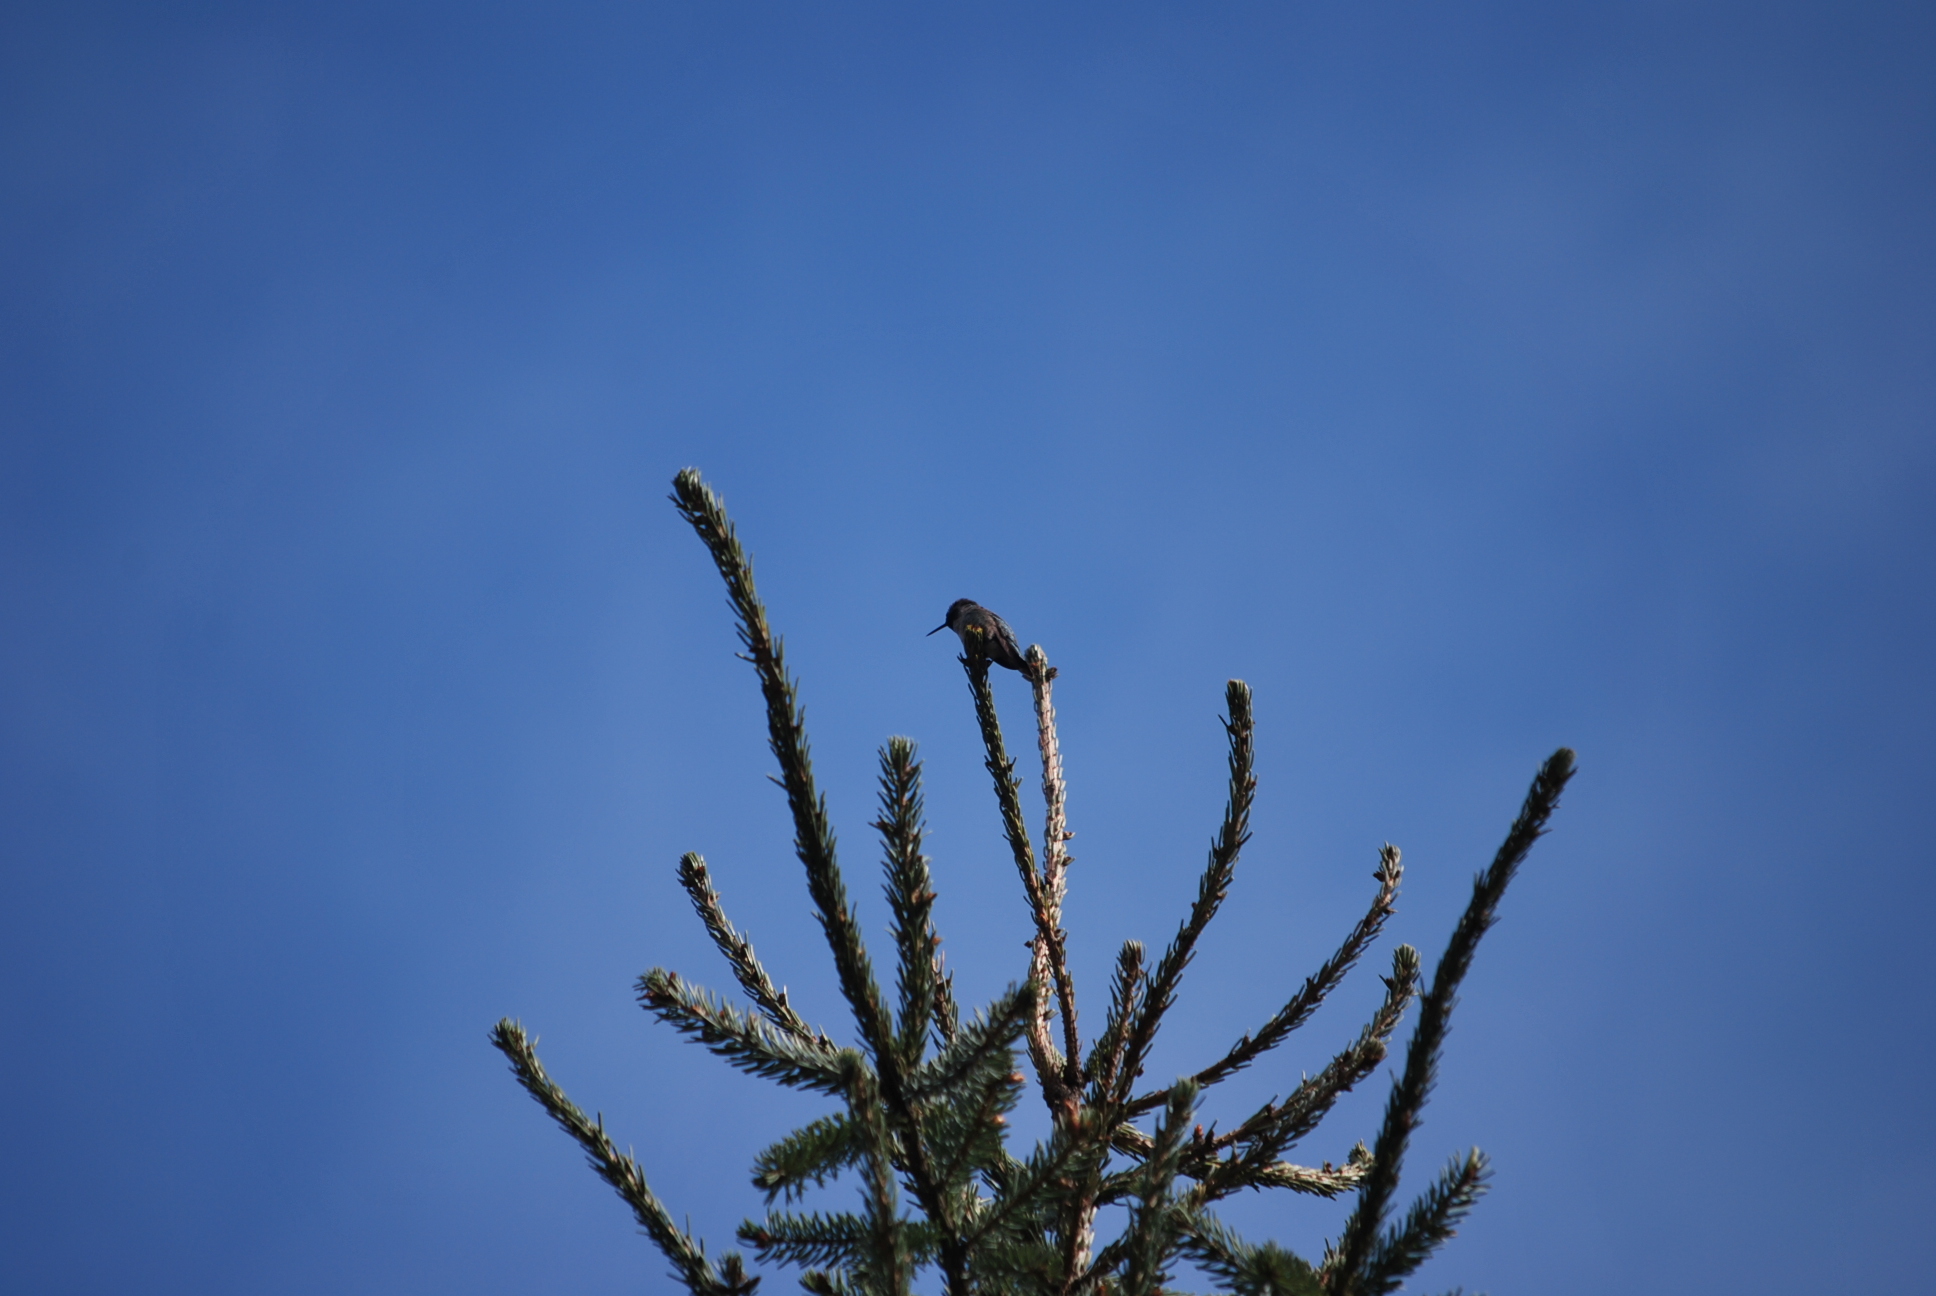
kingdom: Animalia
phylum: Chordata
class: Aves
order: Apodiformes
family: Trochilidae
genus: Calypte
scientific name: Calypte anna
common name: Anna's hummingbird
